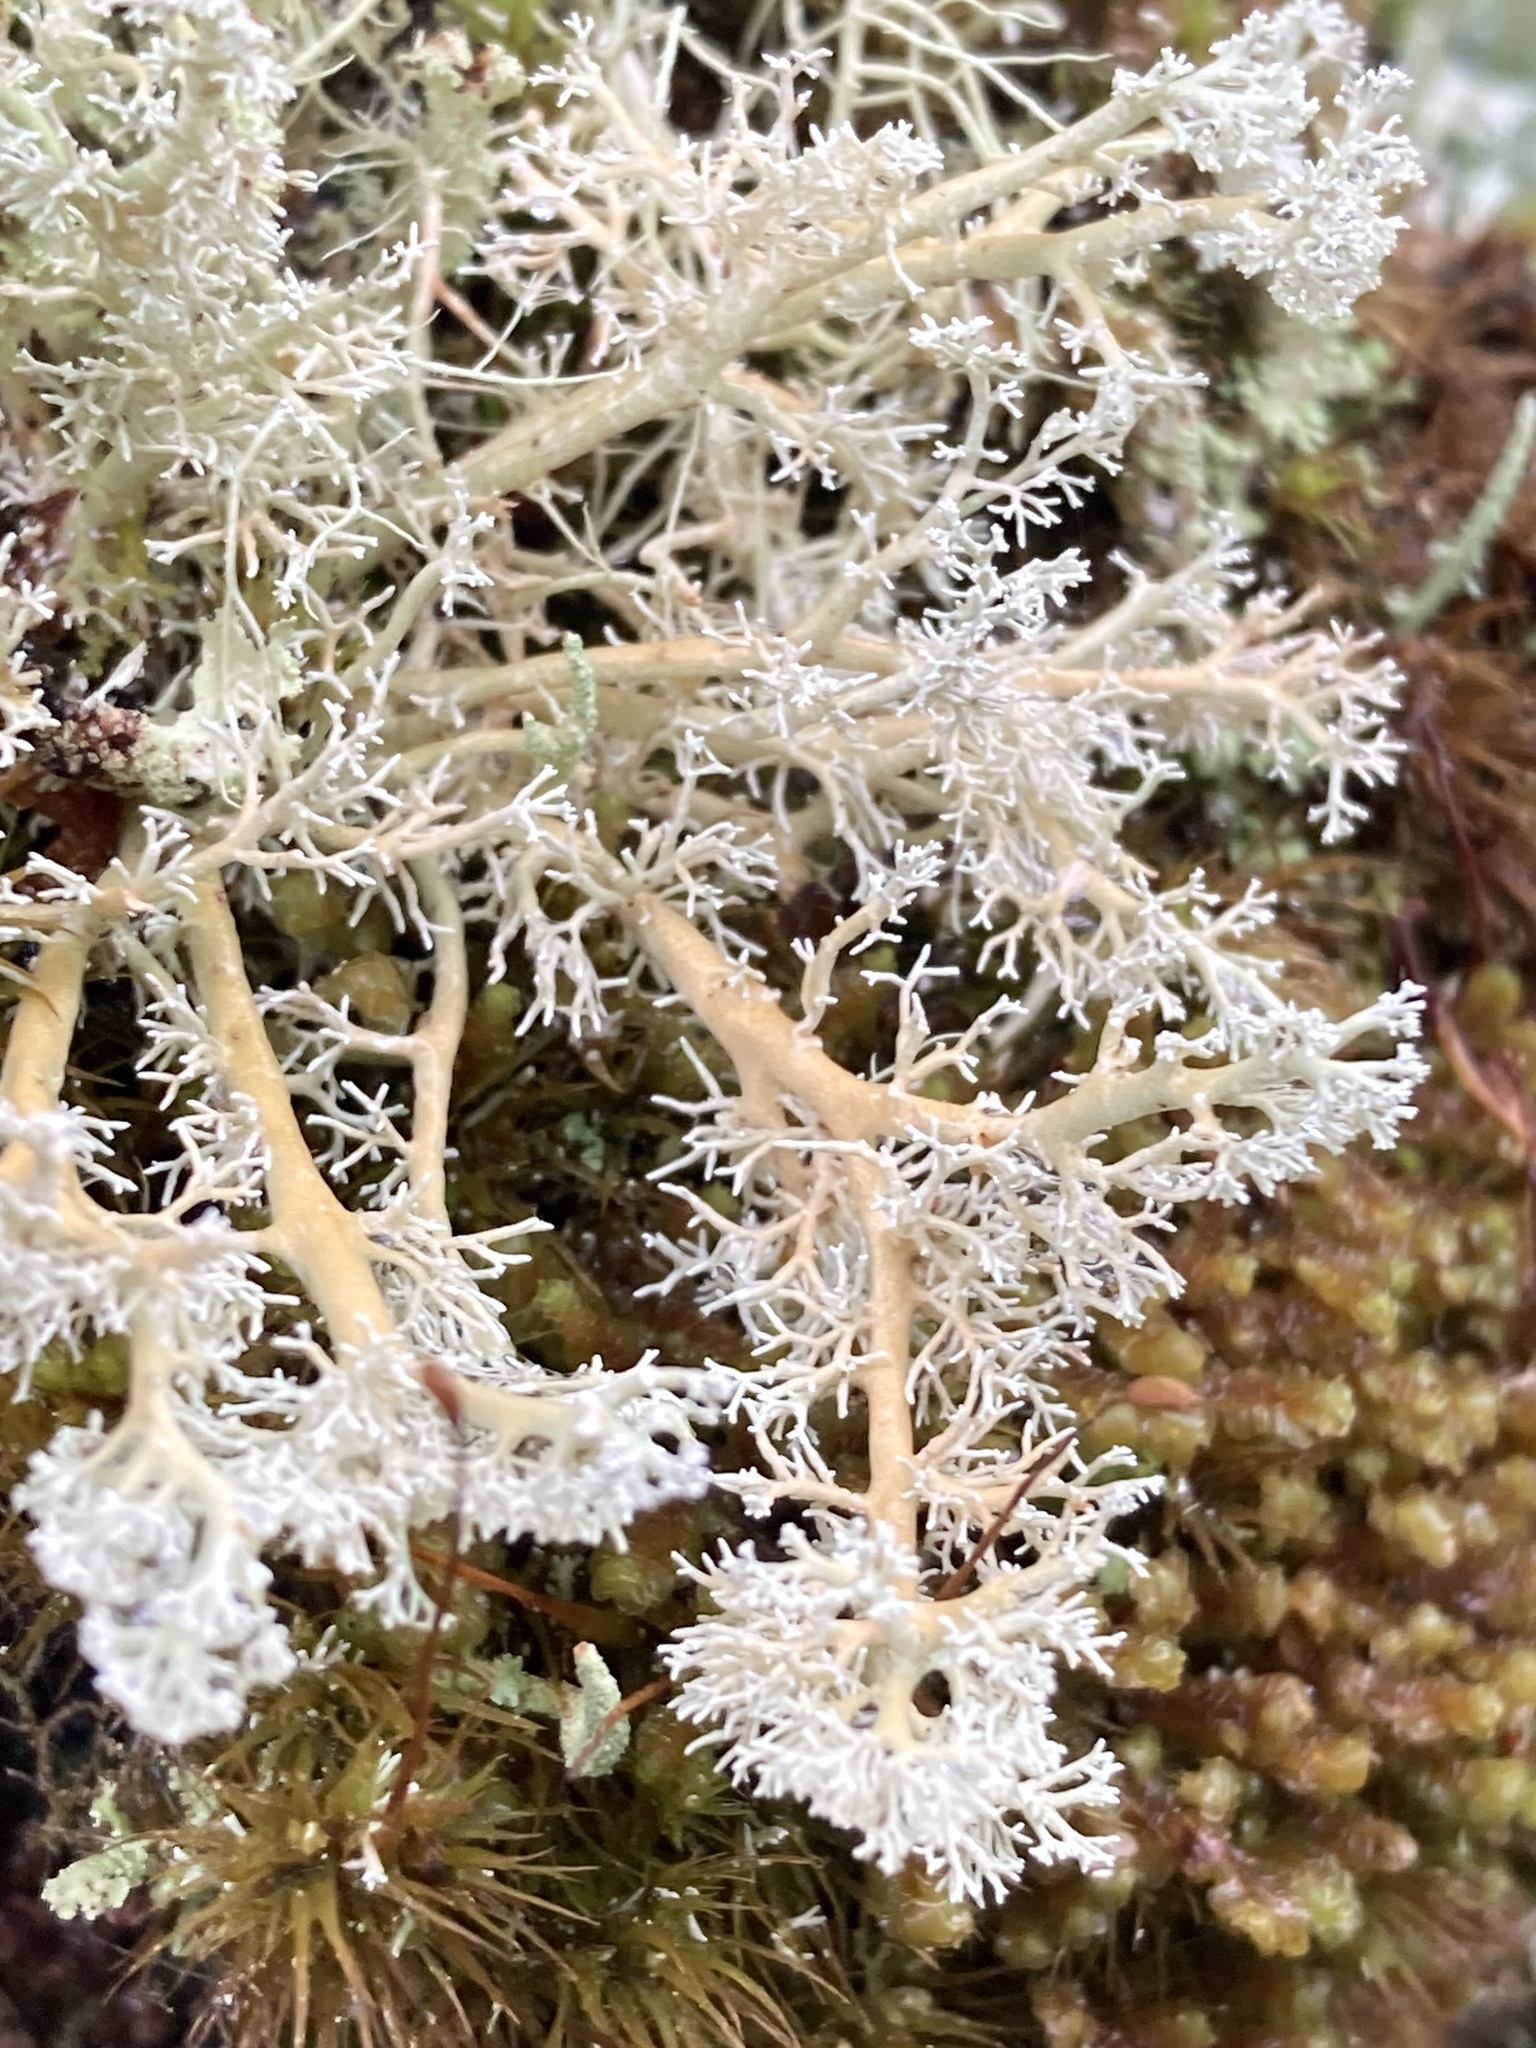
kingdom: Fungi
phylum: Ascomycota
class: Lecanoromycetes
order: Lecanorales
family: Sphaerophoraceae
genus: Sphaerophorus
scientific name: Sphaerophorus globosus
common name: Globe ball lichen
